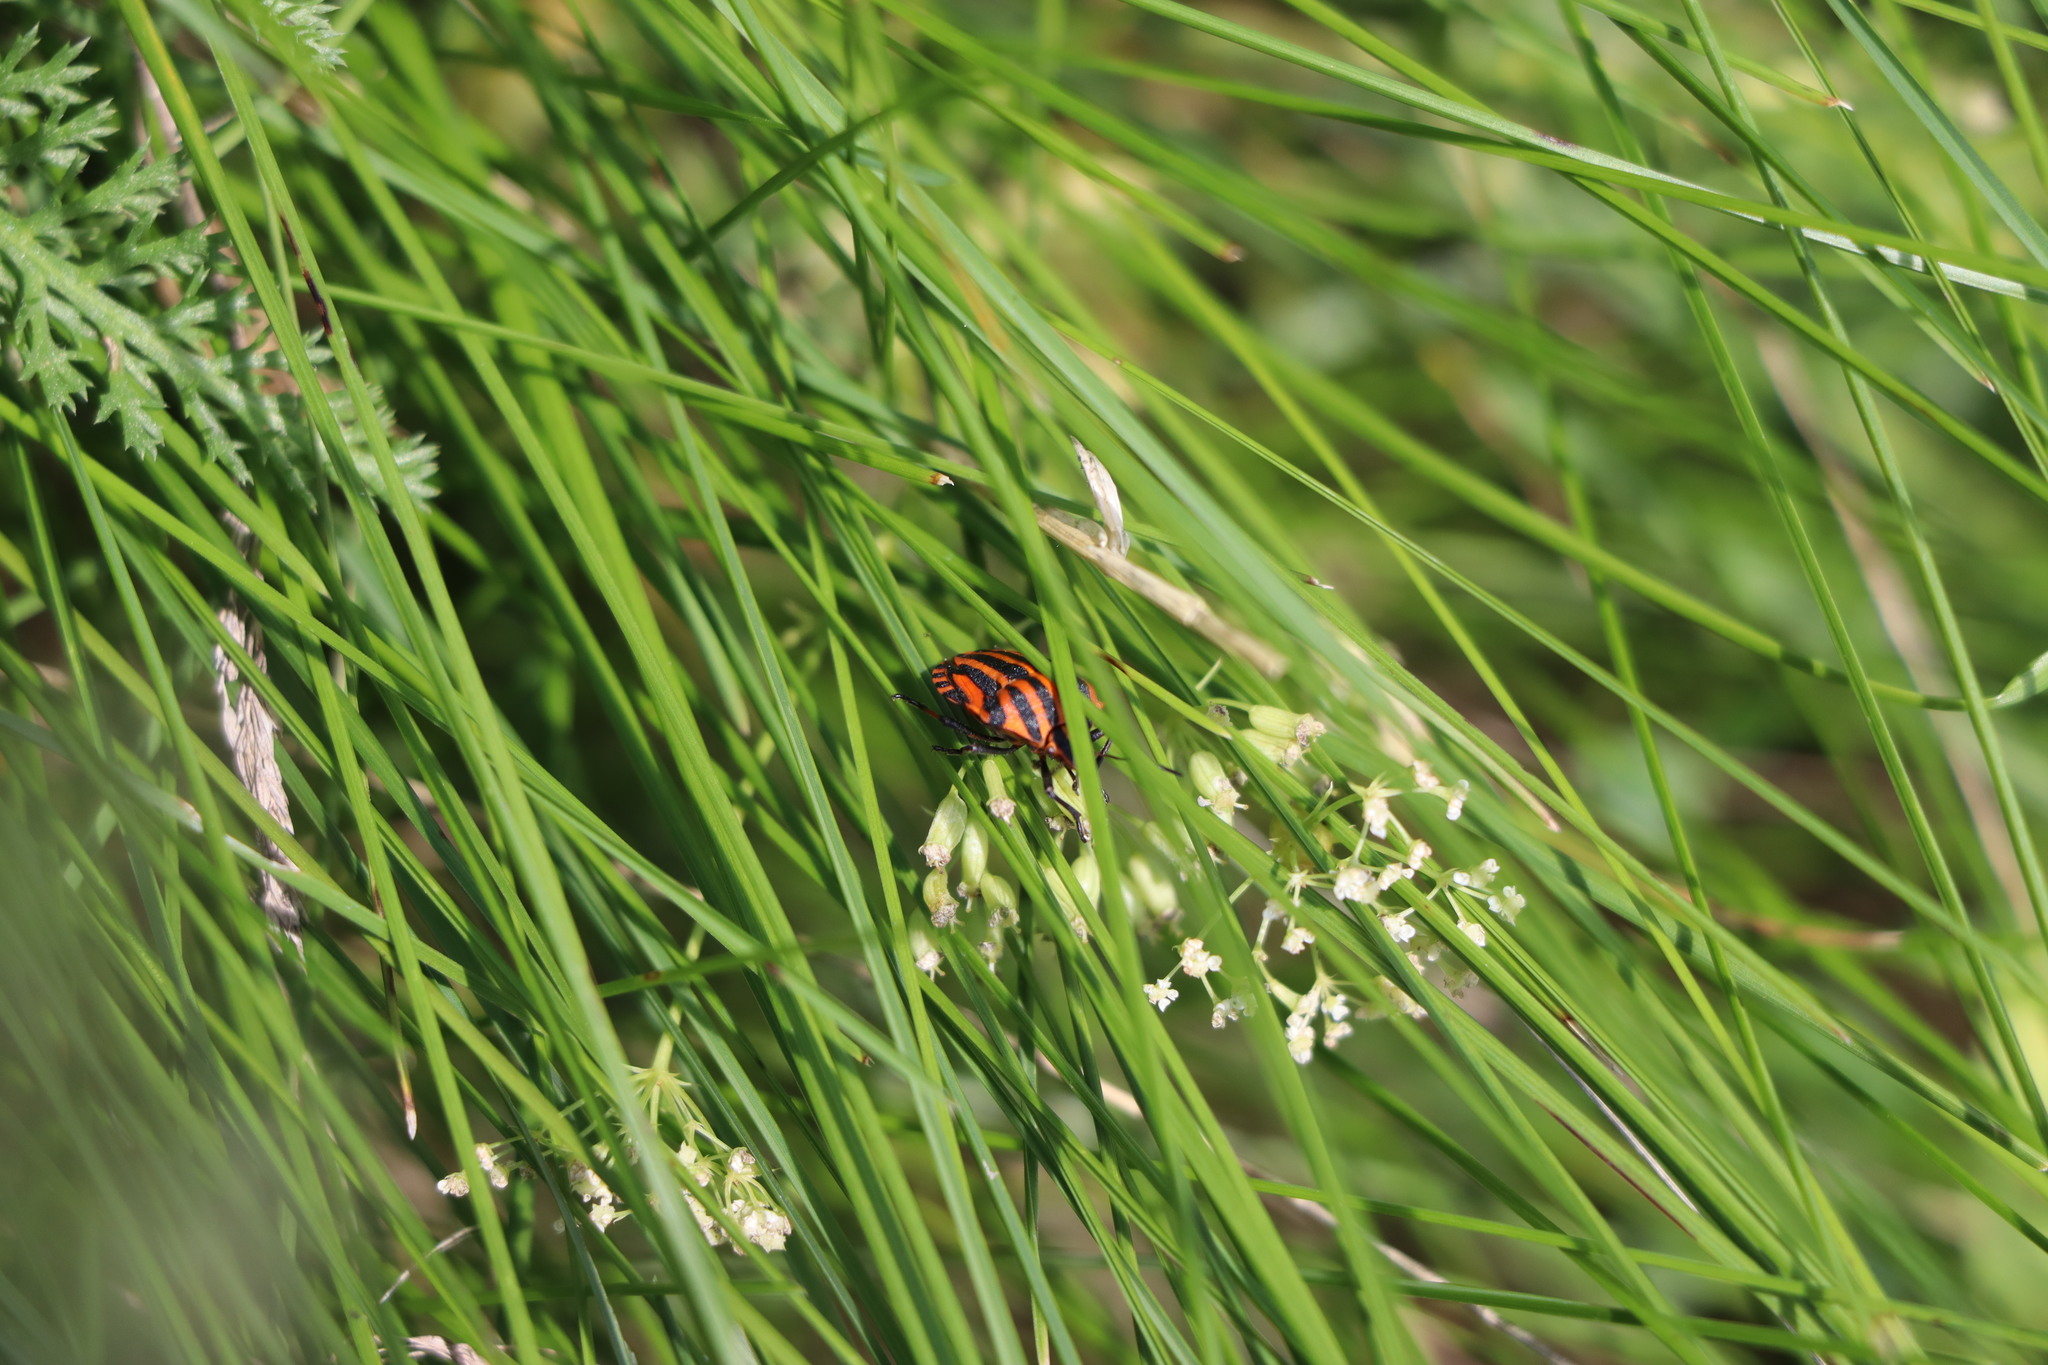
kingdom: Animalia
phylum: Arthropoda
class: Insecta
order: Hemiptera
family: Pentatomidae
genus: Graphosoma
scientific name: Graphosoma italicum
